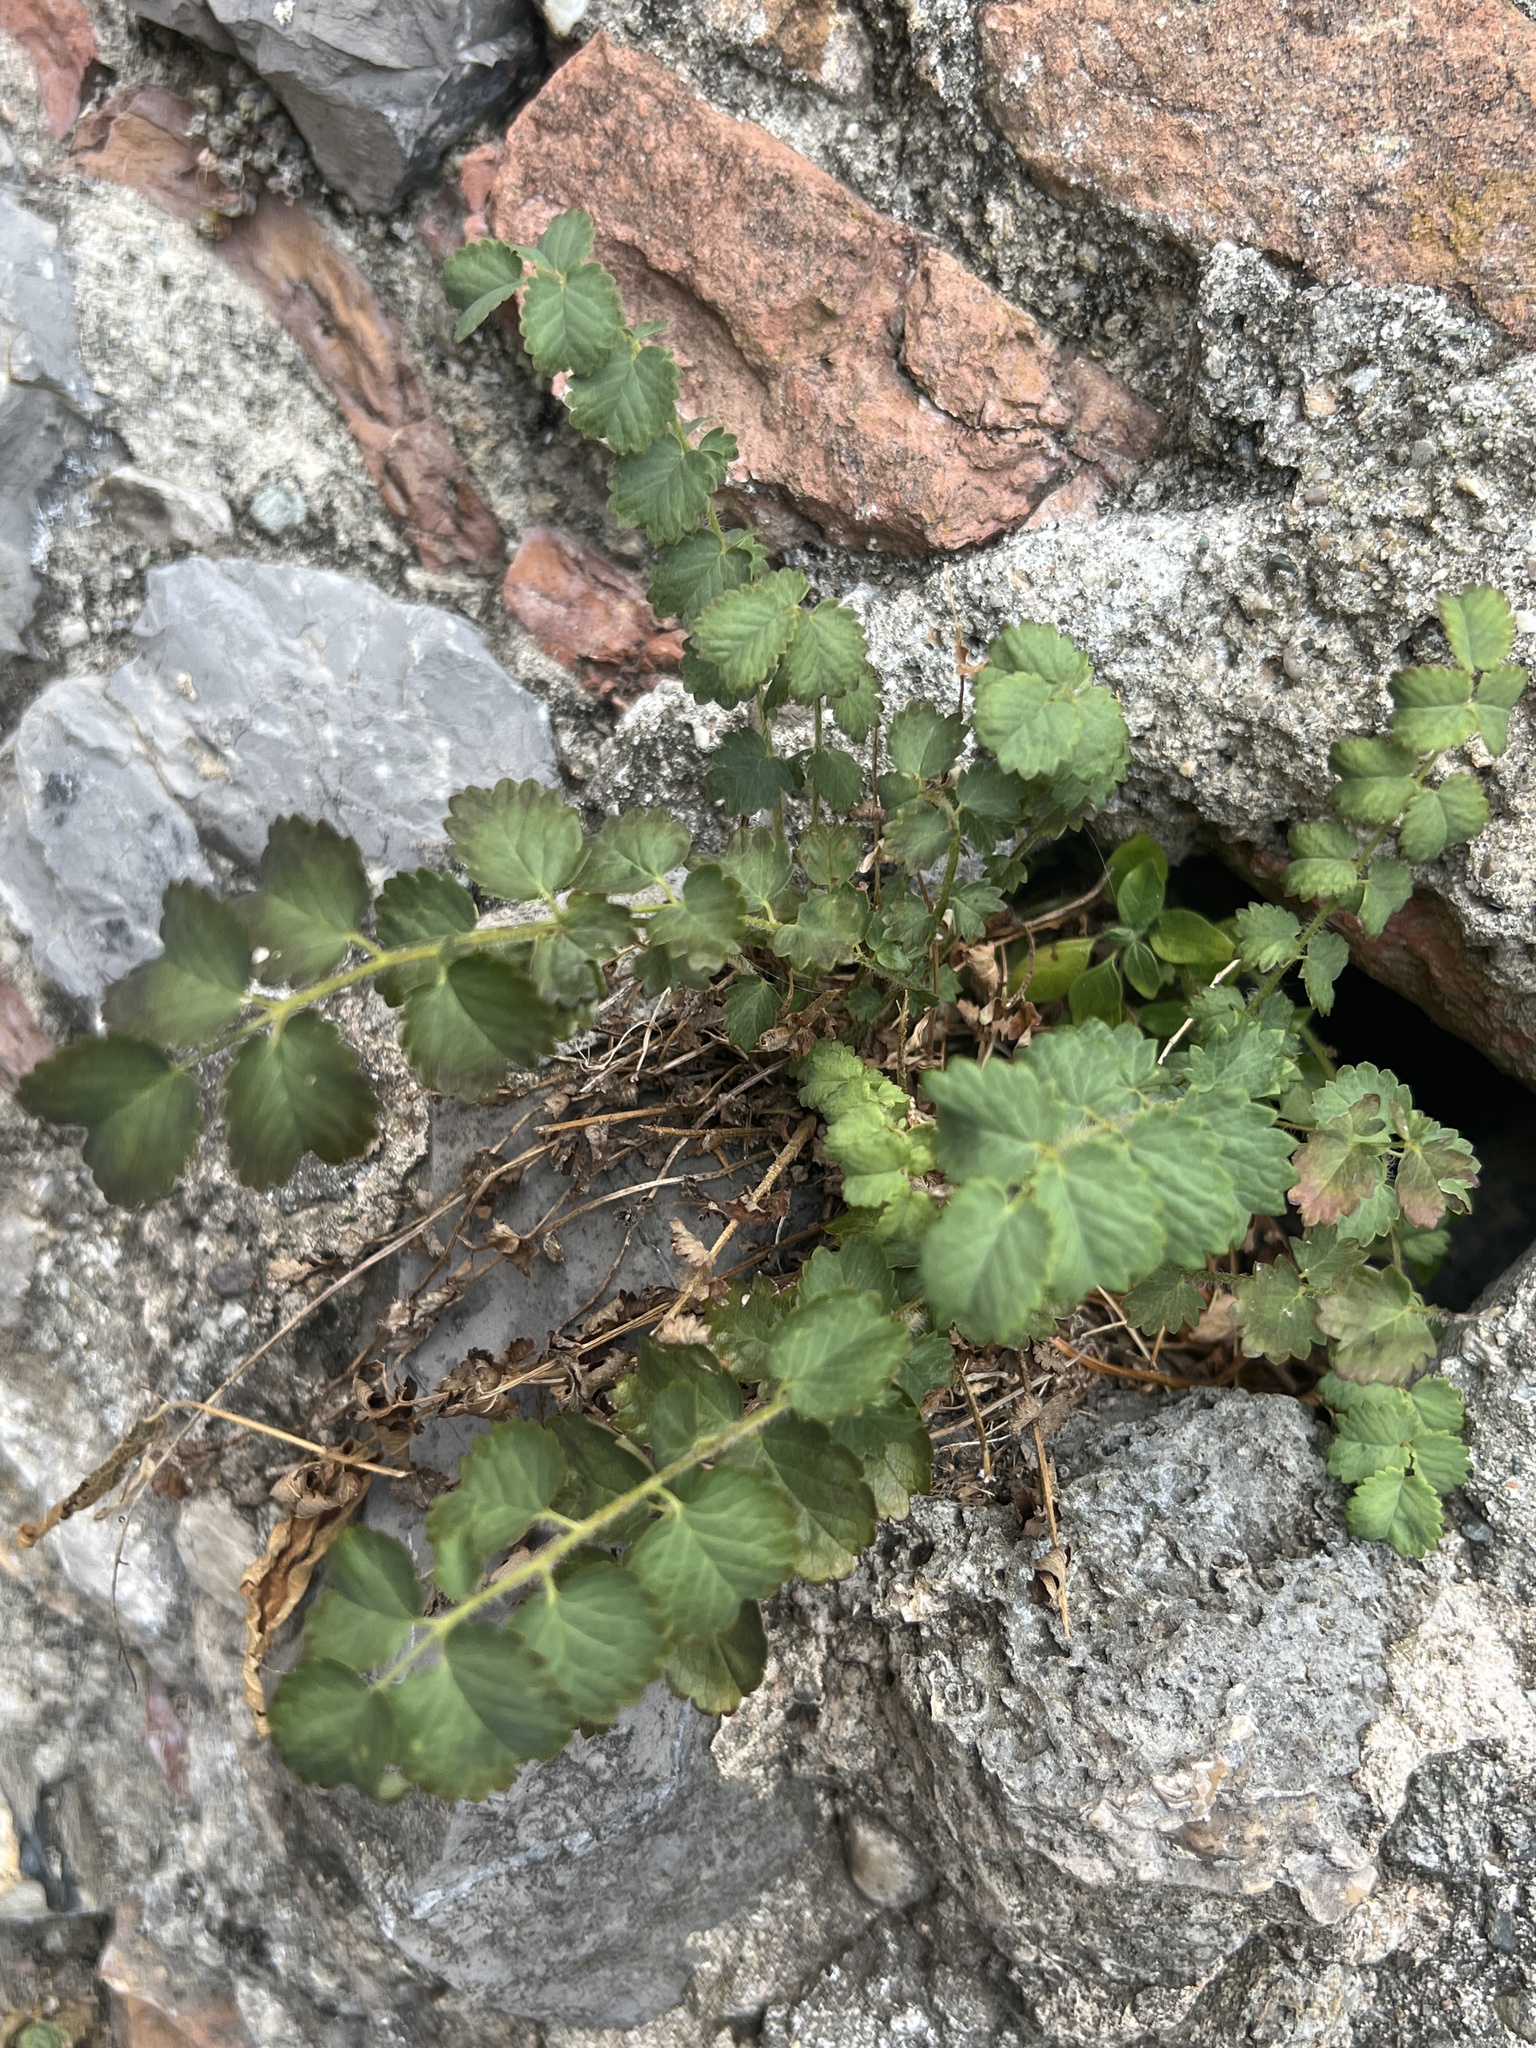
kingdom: Plantae
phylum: Tracheophyta
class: Magnoliopsida
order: Rosales
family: Rosaceae
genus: Poterium
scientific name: Poterium sanguisorba
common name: Salad burnet
